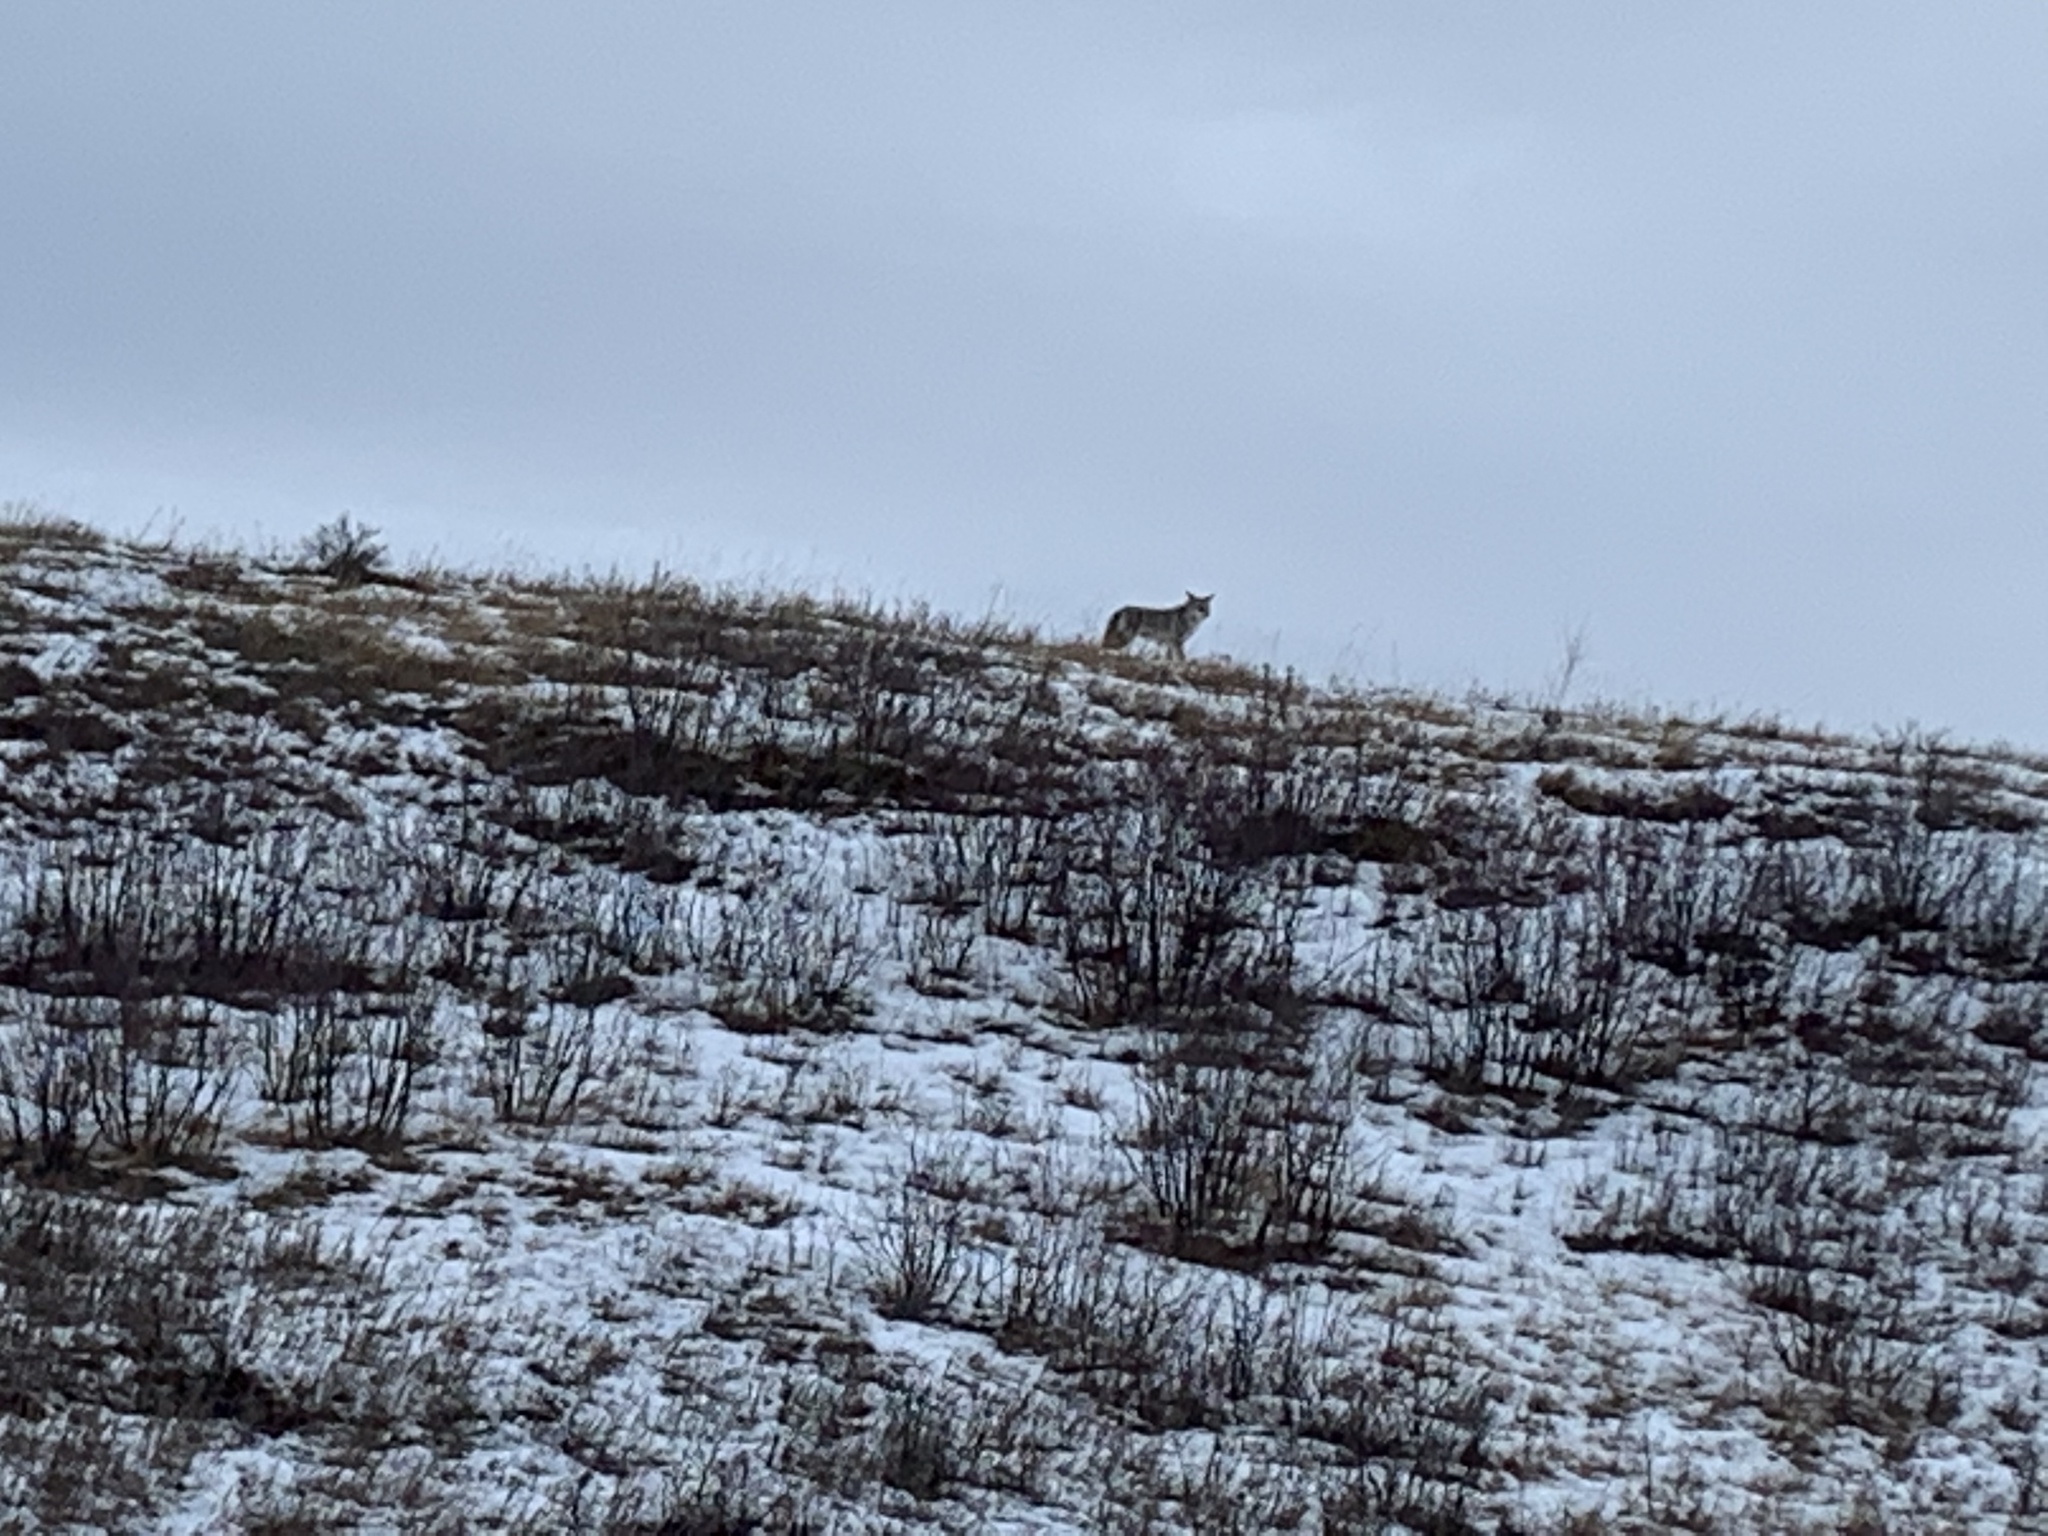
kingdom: Animalia
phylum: Chordata
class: Mammalia
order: Carnivora
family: Canidae
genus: Canis
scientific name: Canis latrans
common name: Coyote
